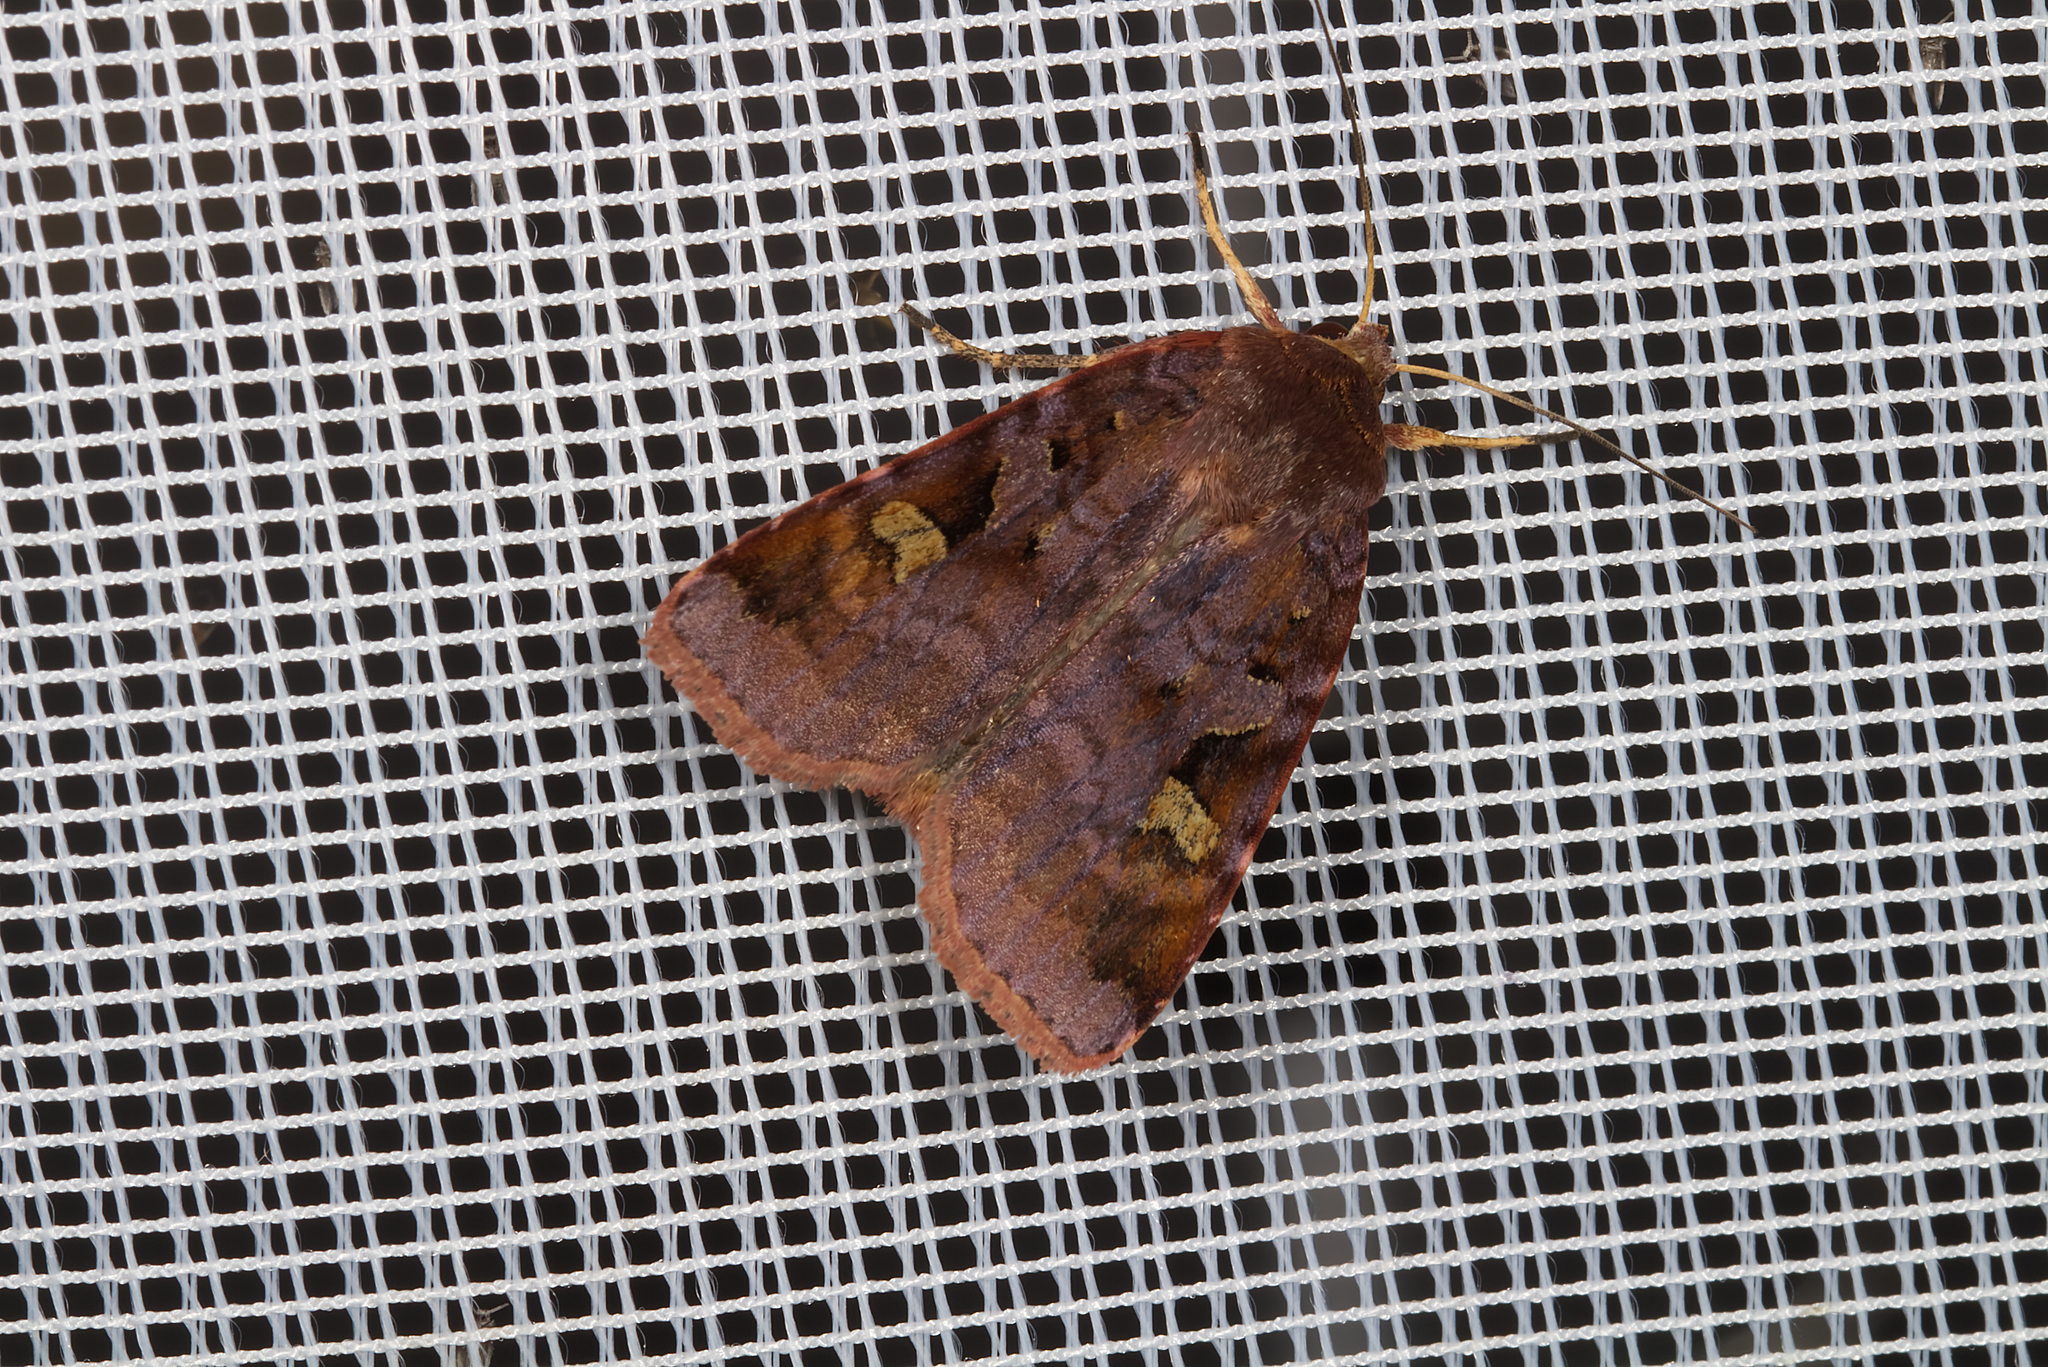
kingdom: Animalia
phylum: Arthropoda
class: Insecta
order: Lepidoptera
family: Noctuidae
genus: Diarsia
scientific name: Diarsia brunnea
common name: Purple clay
